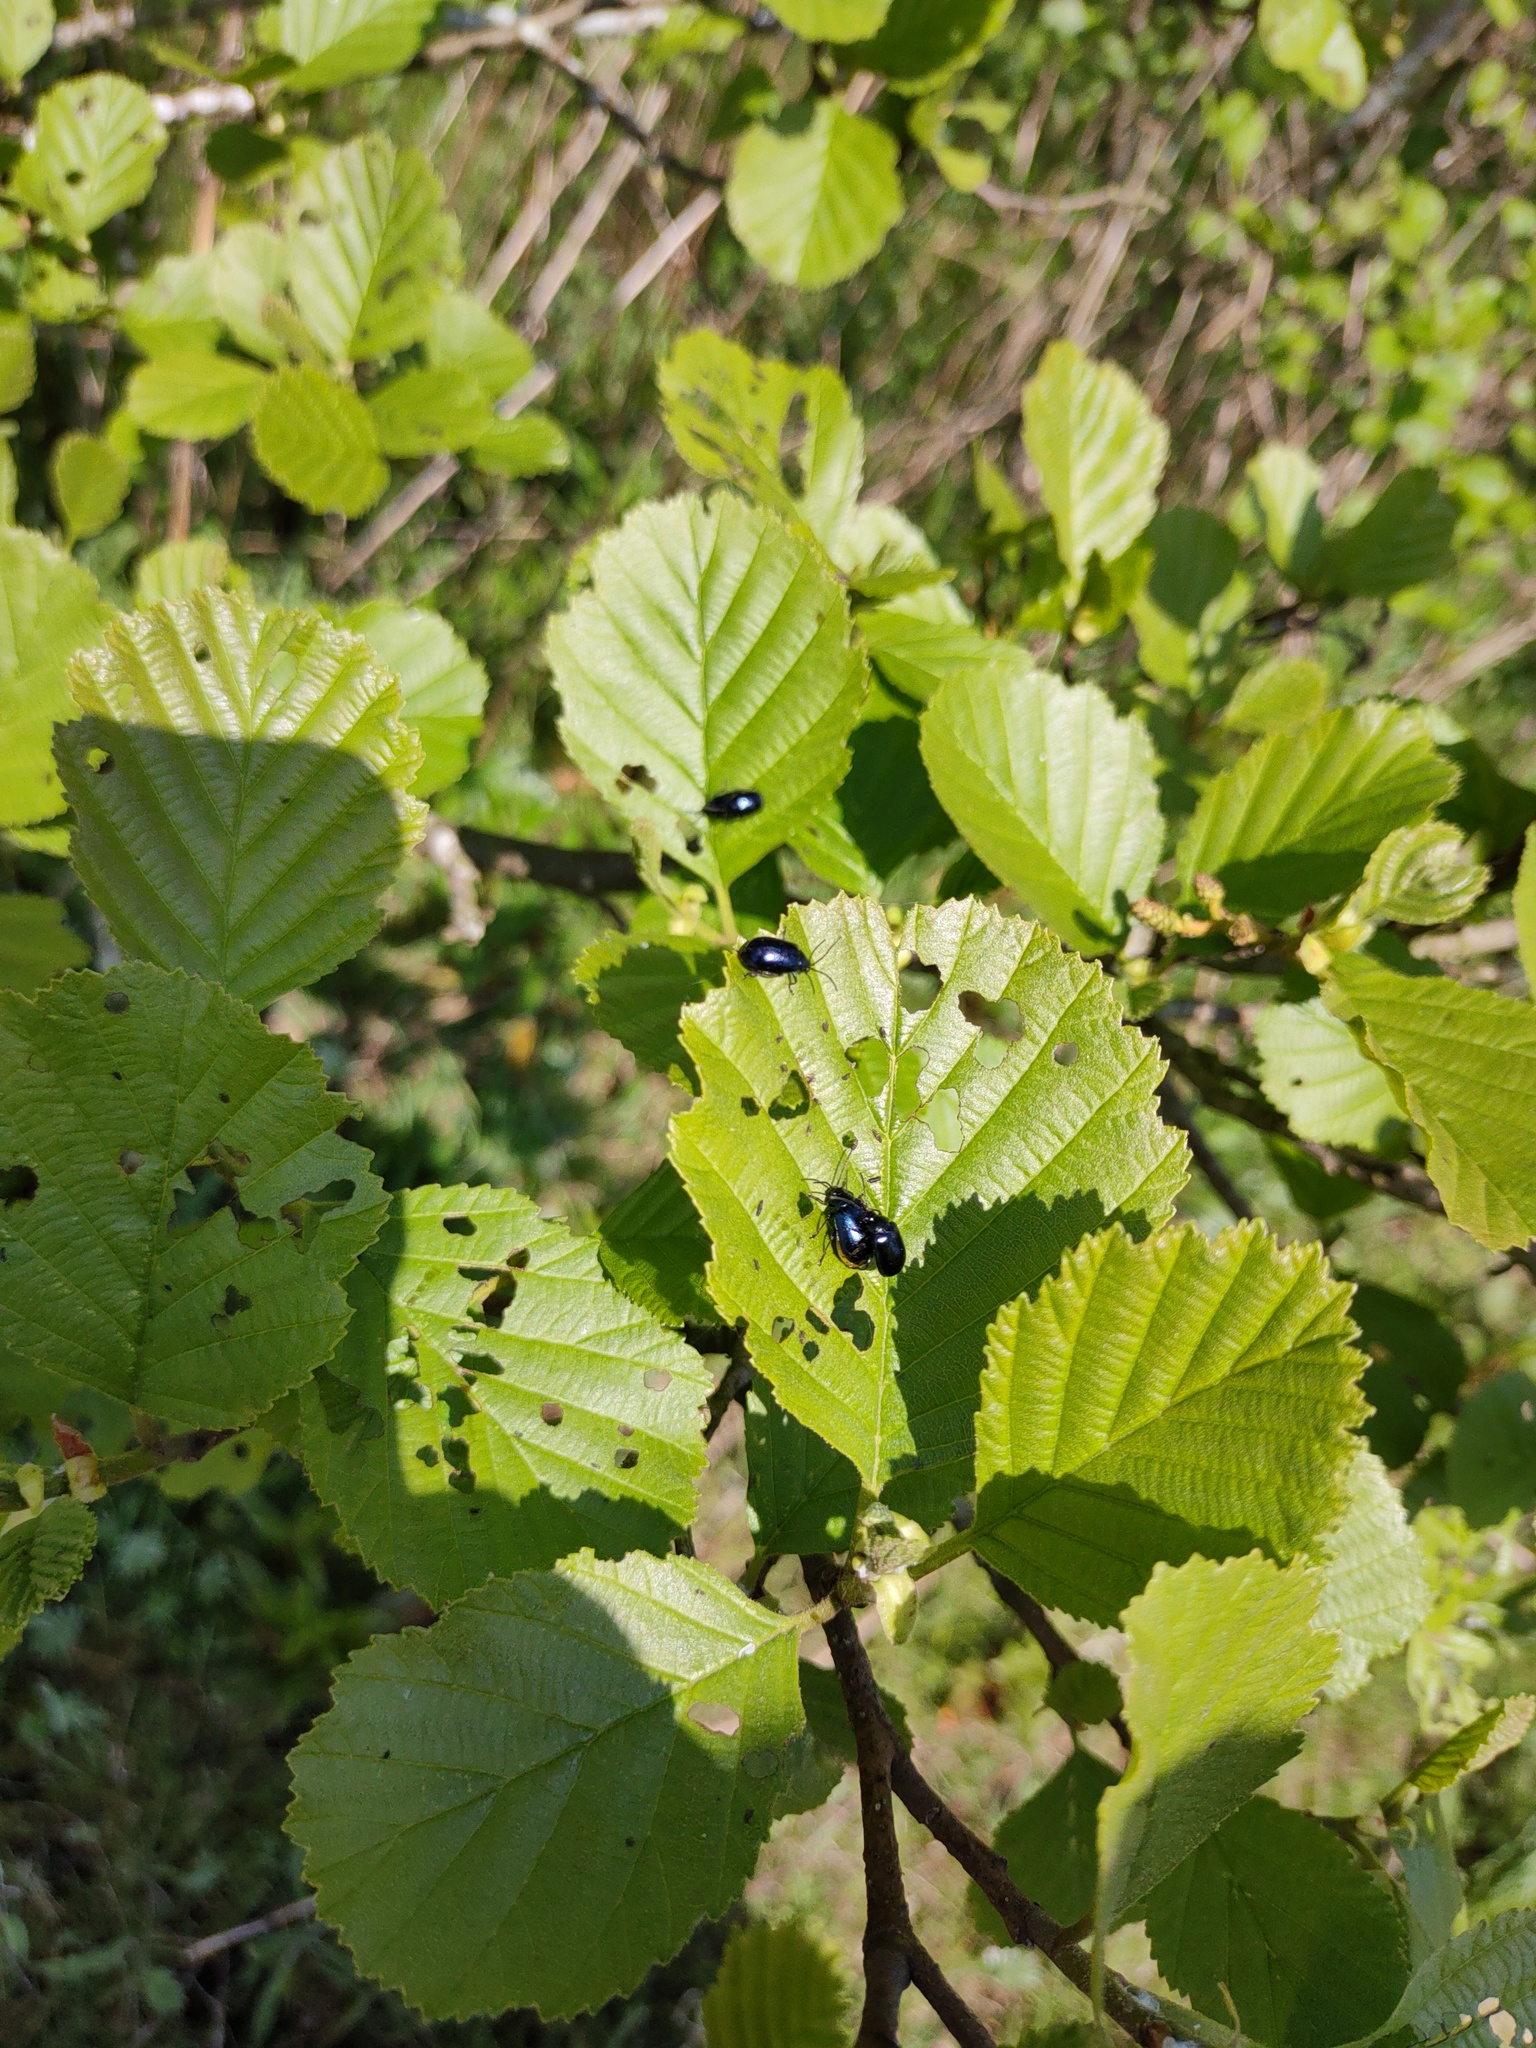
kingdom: Animalia
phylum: Arthropoda
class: Insecta
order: Coleoptera
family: Chrysomelidae
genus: Agelastica
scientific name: Agelastica alni
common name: Alder leaf beetle
